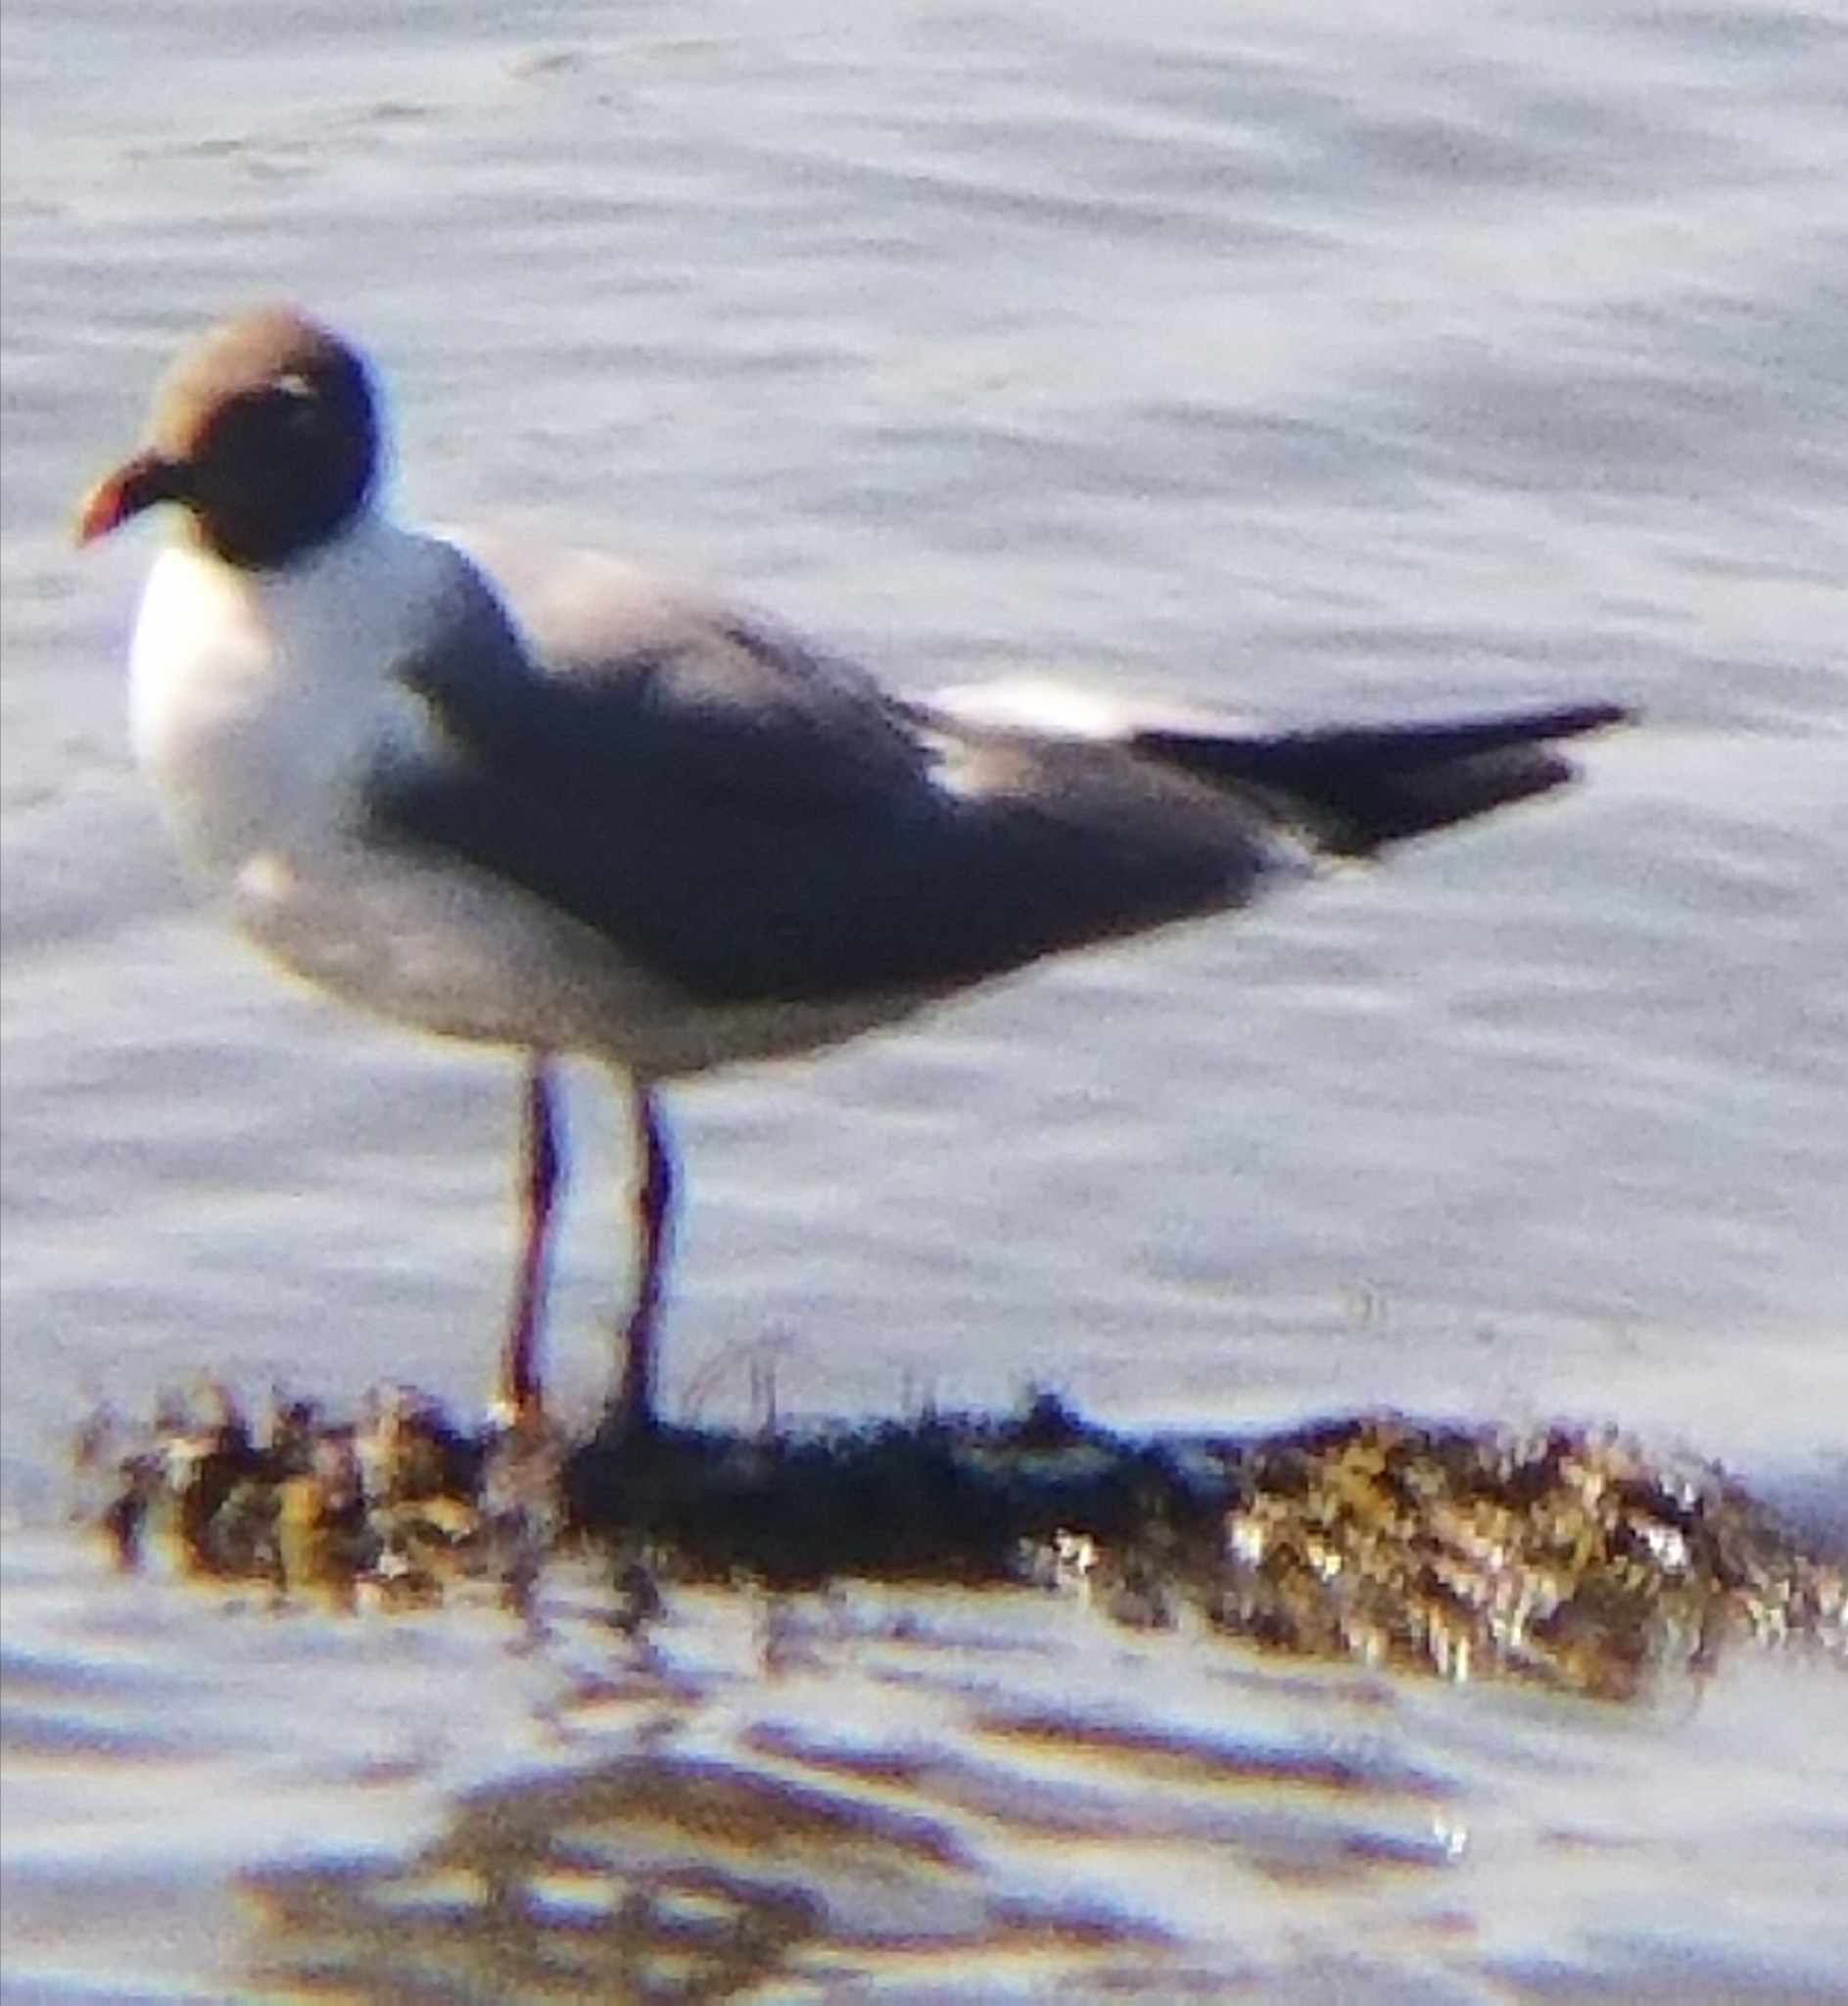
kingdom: Animalia
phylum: Chordata
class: Aves
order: Charadriiformes
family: Laridae
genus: Leucophaeus
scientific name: Leucophaeus atricilla
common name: Laughing gull
